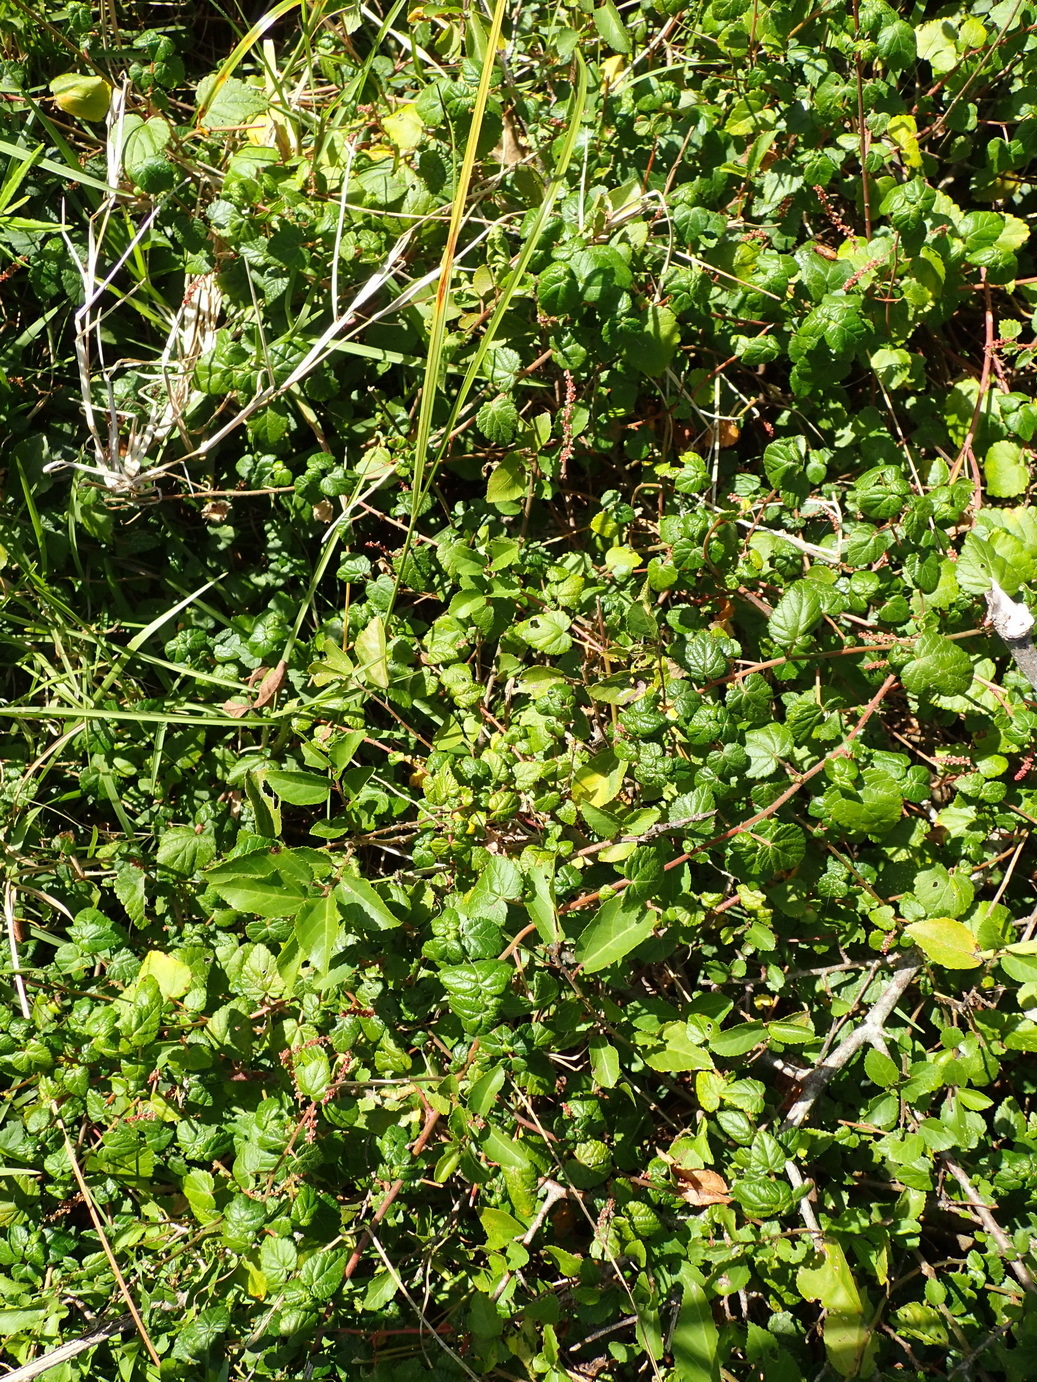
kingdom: Plantae
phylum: Tracheophyta
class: Magnoliopsida
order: Malpighiales
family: Euphorbiaceae
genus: Bernardia
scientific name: Bernardia corensis
